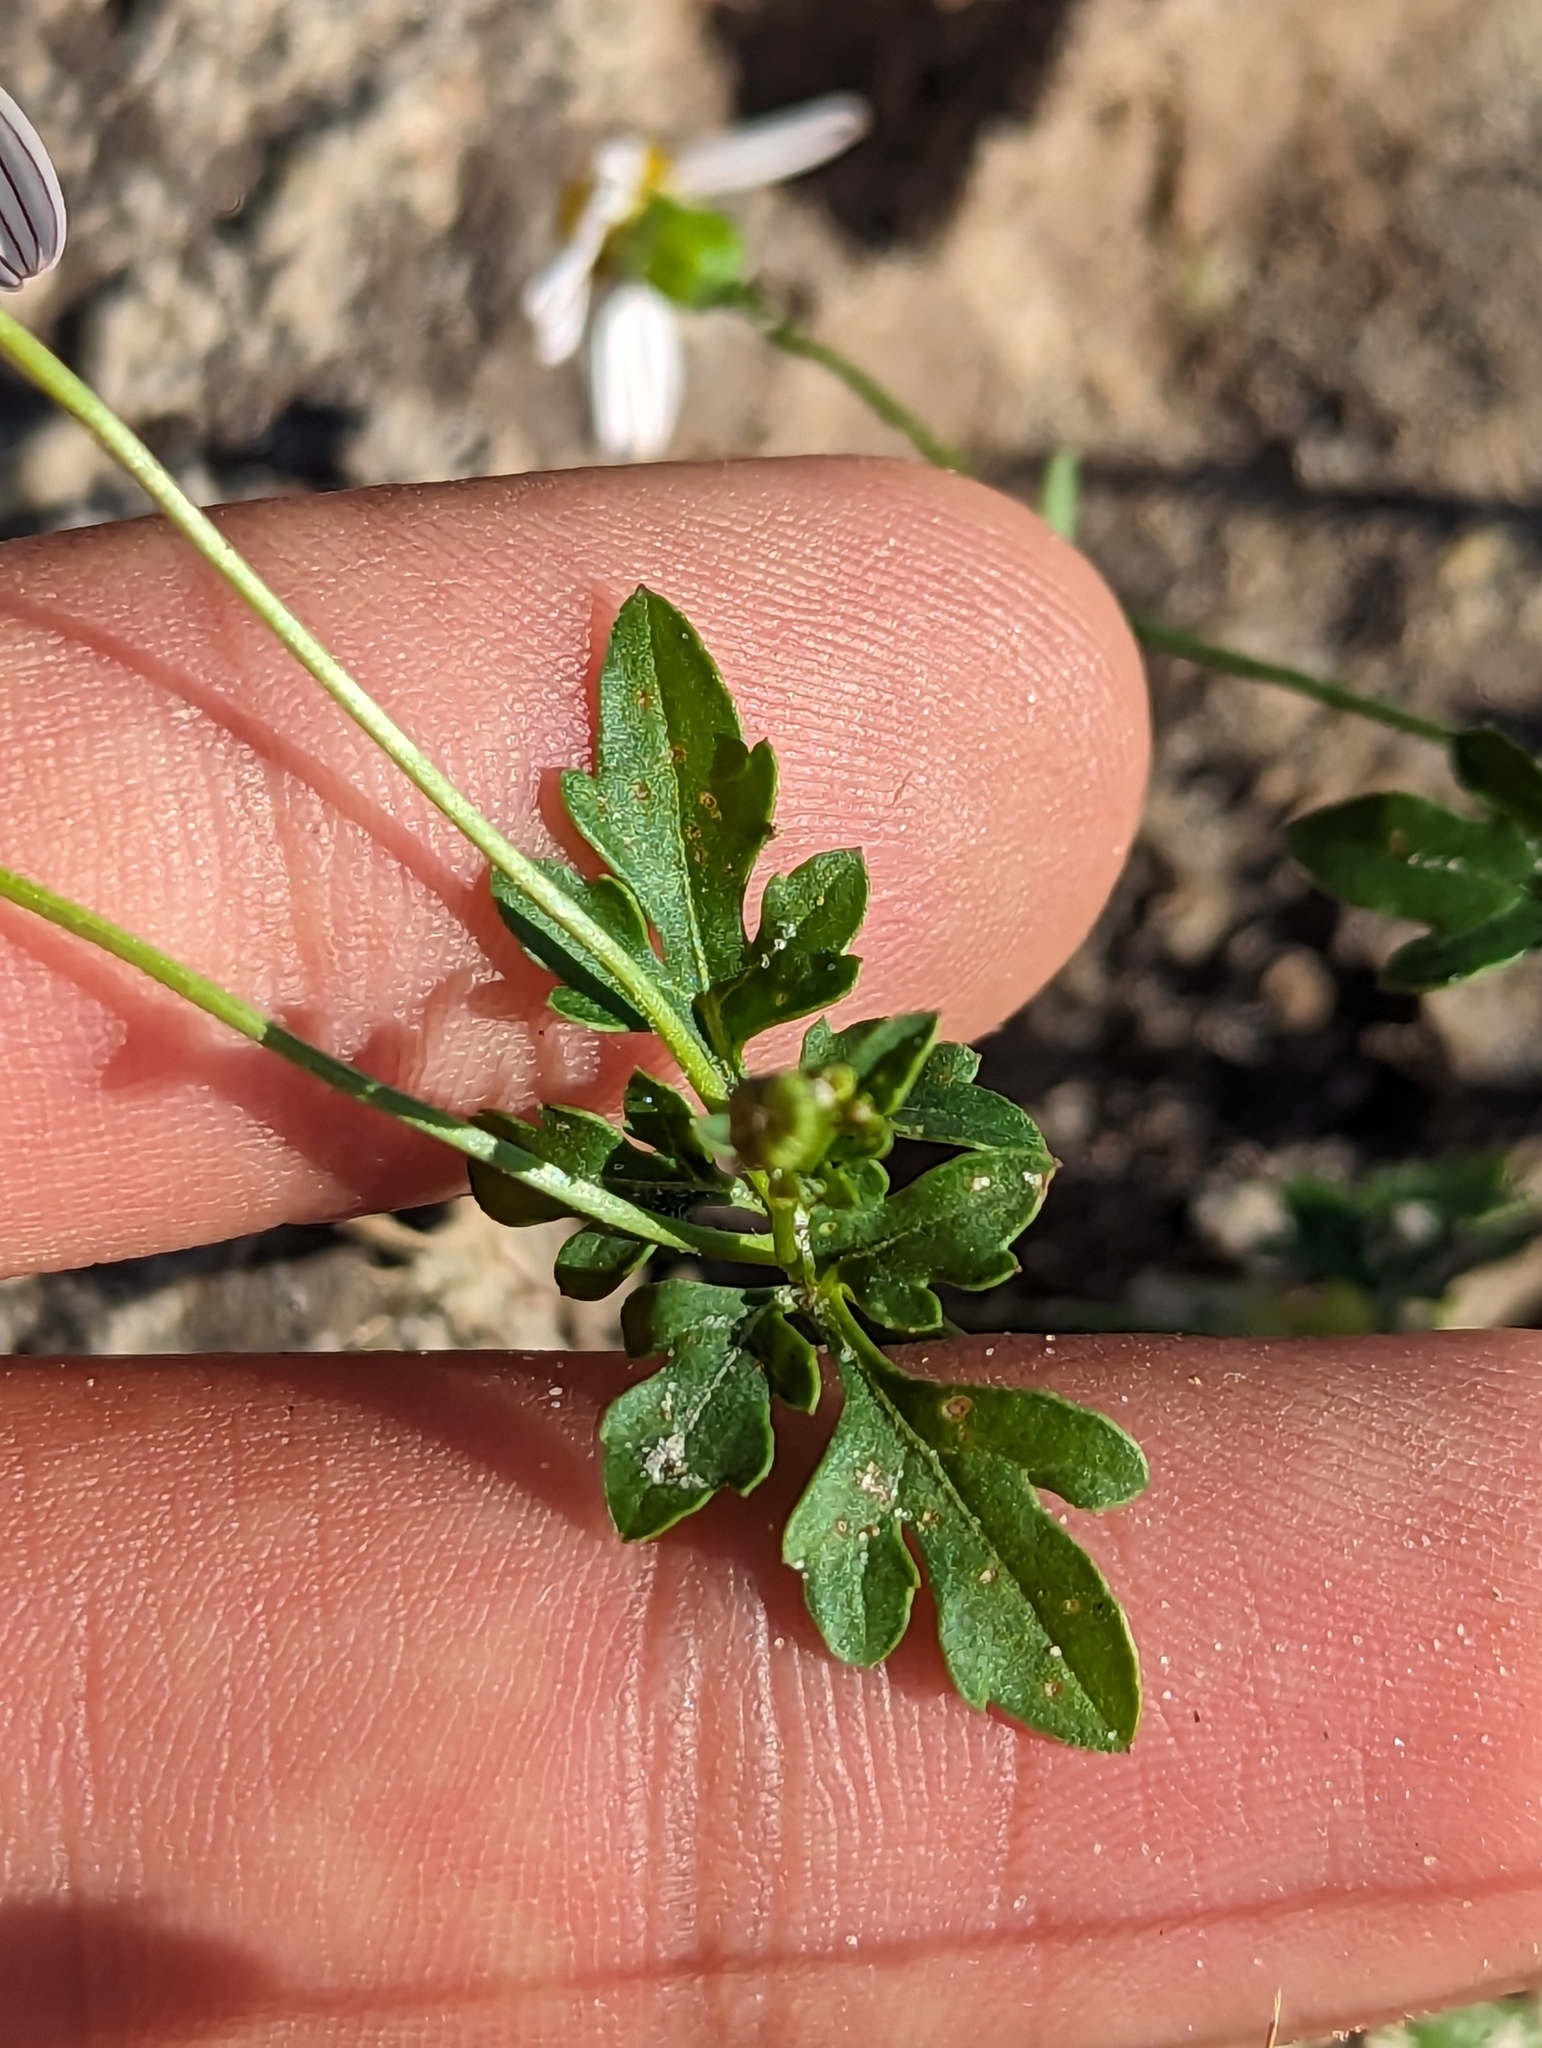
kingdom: Plantae
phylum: Tracheophyta
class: Magnoliopsida
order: Asterales
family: Asteraceae
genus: Coreocarpus
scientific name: Coreocarpus parthenioides
